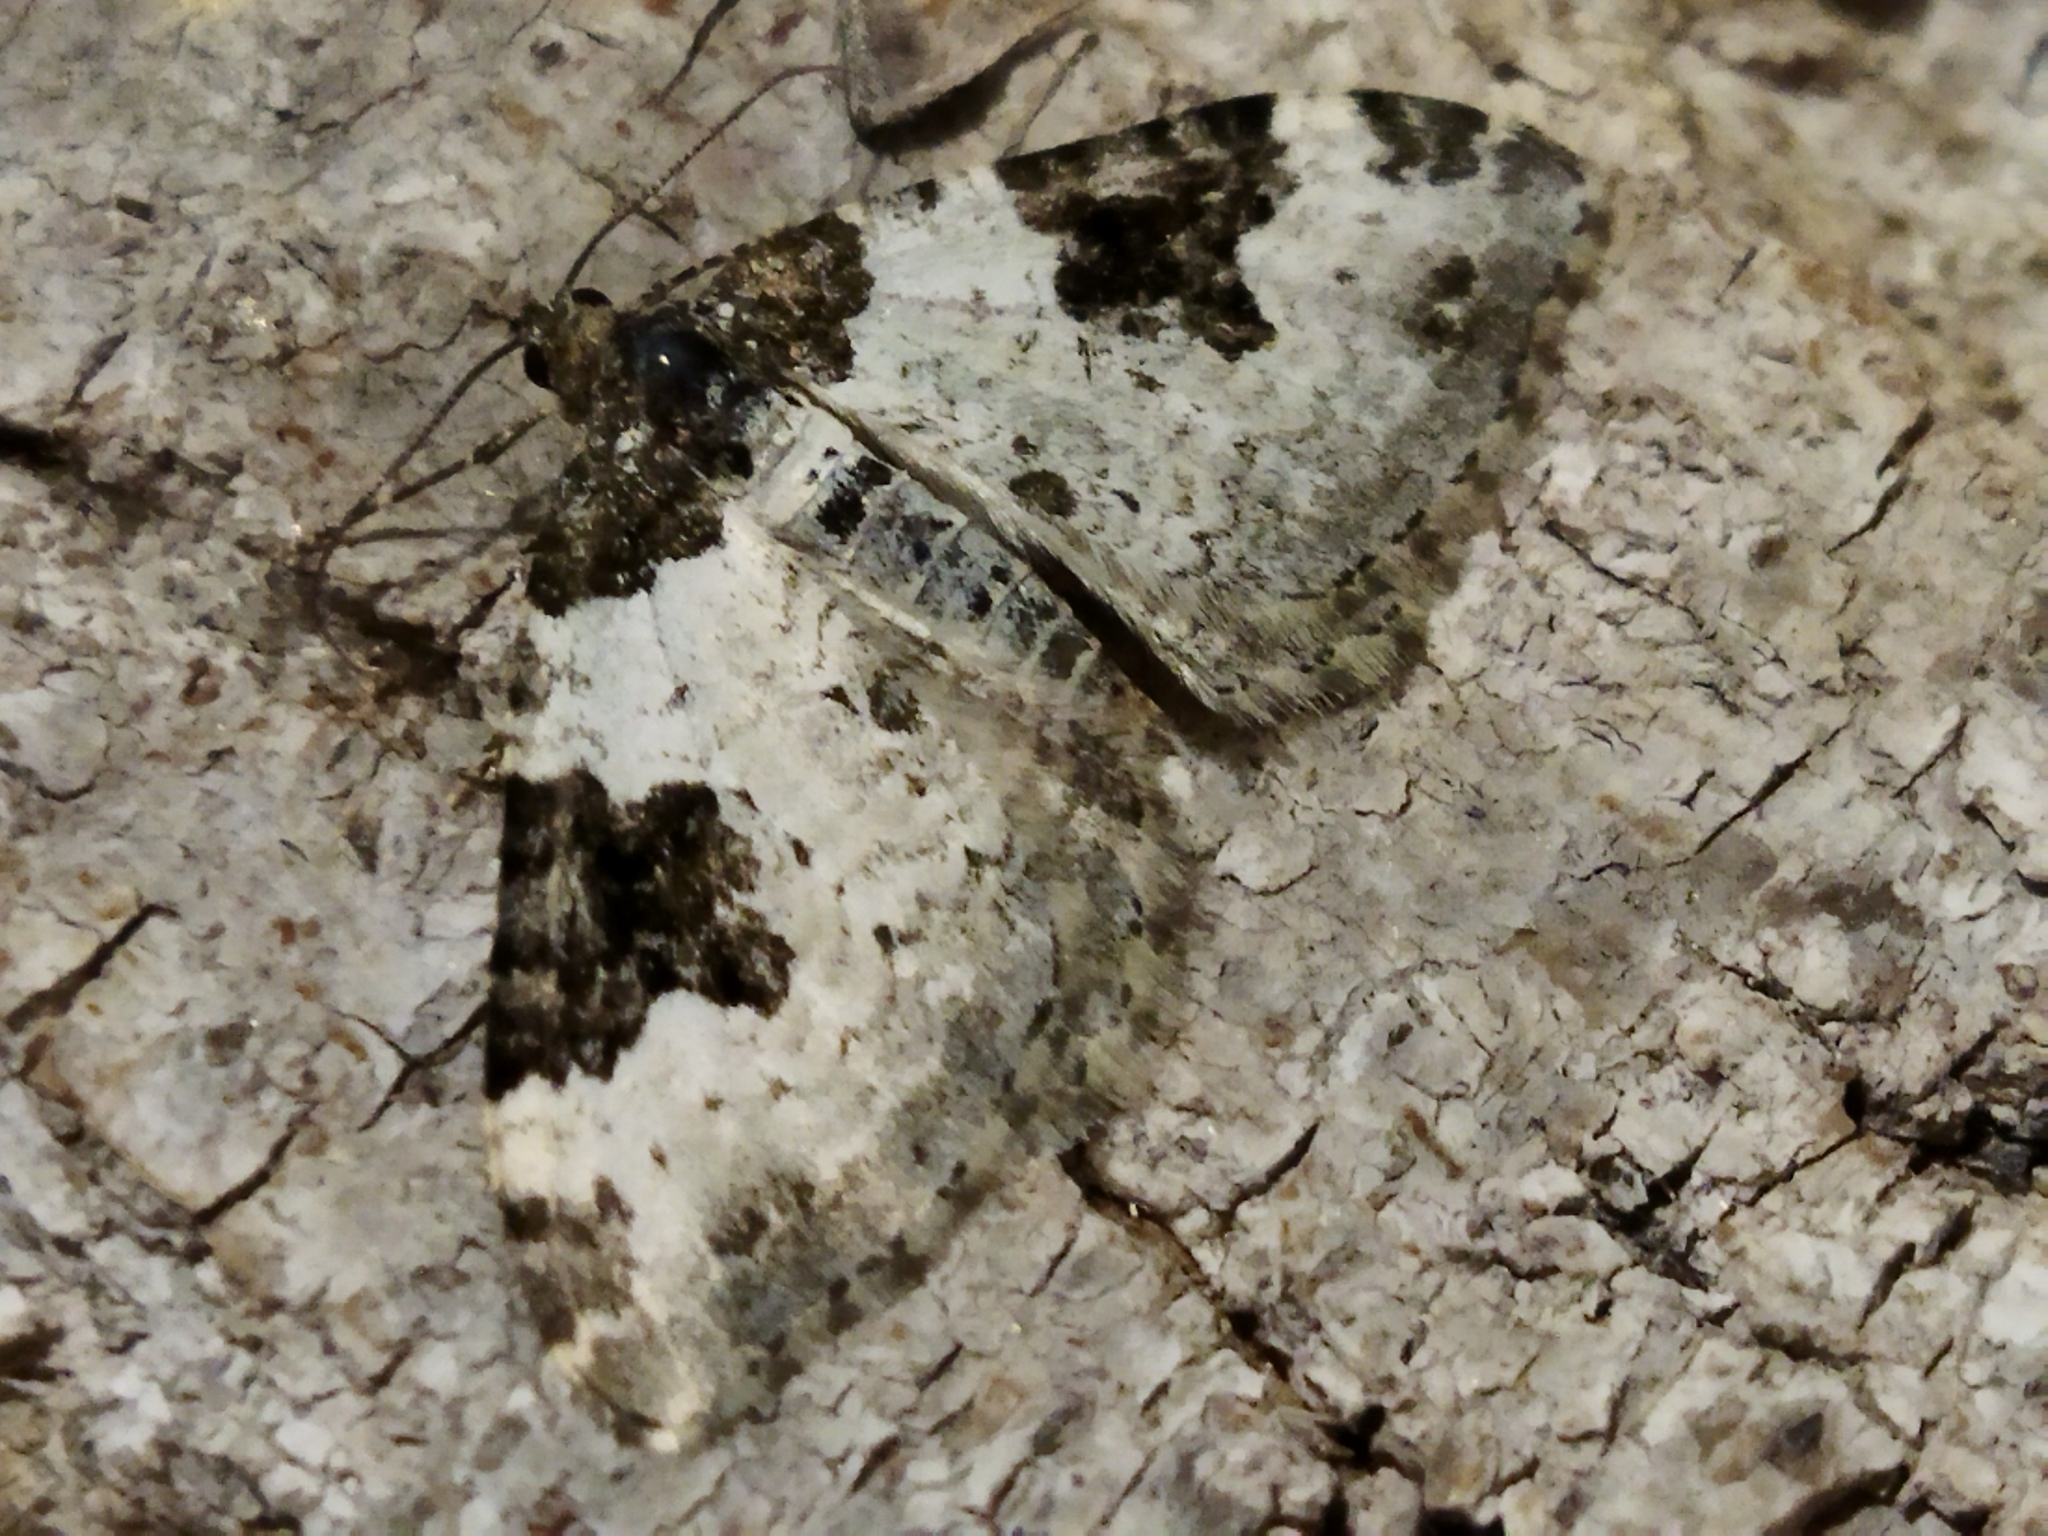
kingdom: Animalia
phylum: Arthropoda
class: Insecta
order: Lepidoptera
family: Geometridae
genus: Xanthorhoe
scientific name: Xanthorhoe fluctuata
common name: Garden carpet
